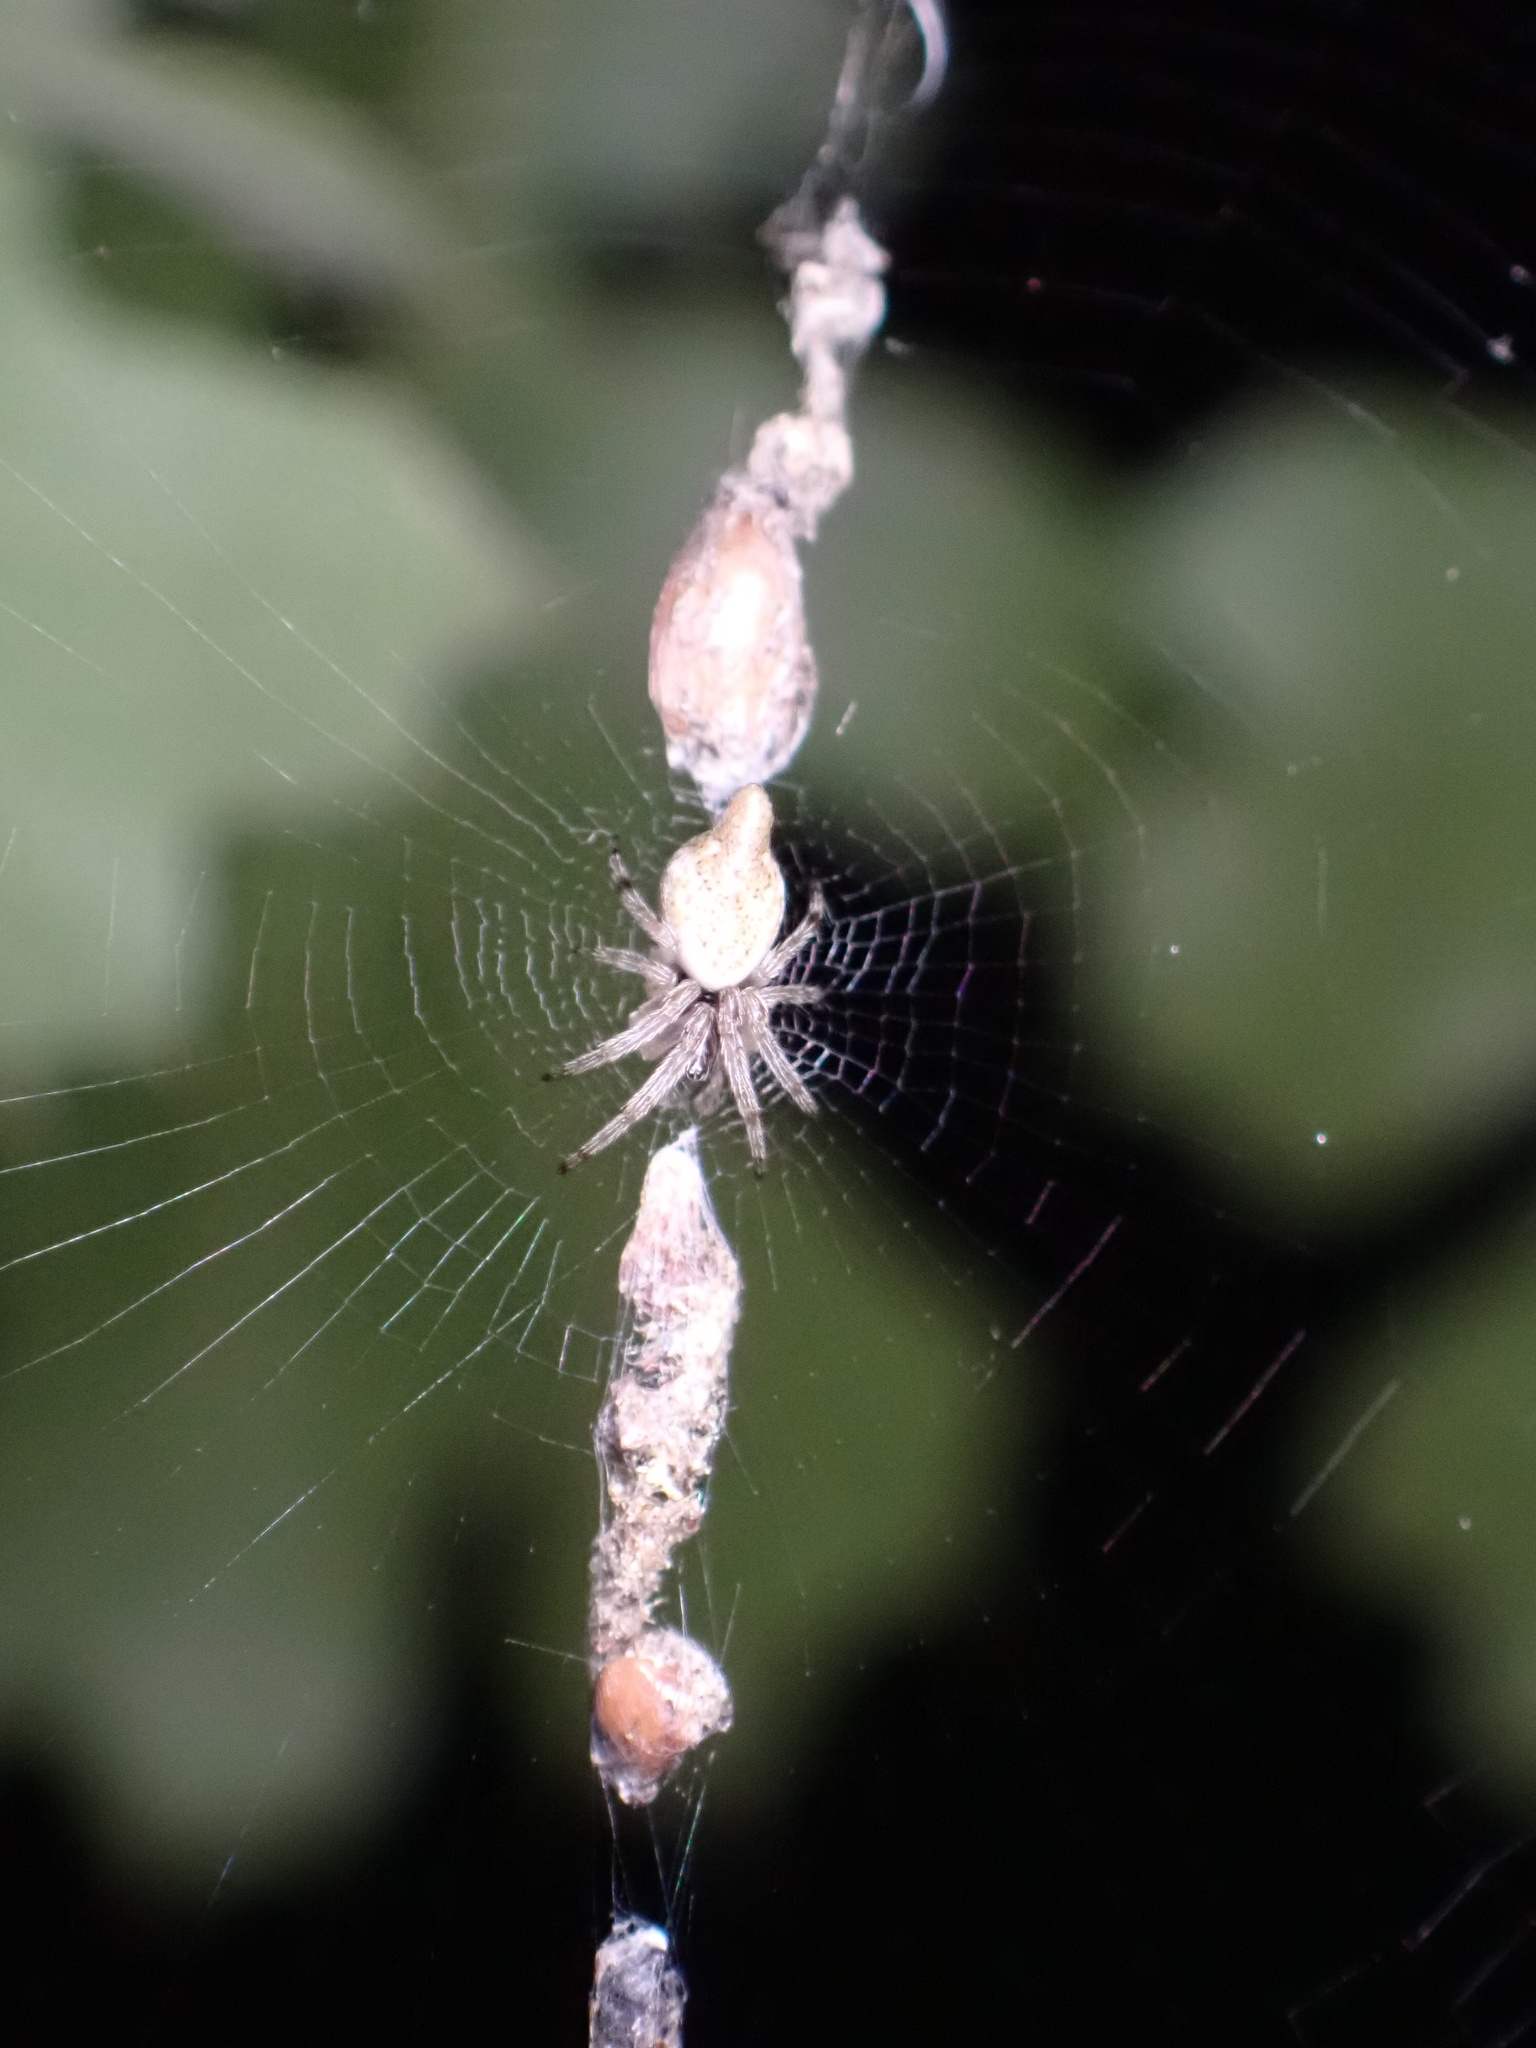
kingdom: Animalia
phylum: Arthropoda
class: Arachnida
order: Araneae
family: Araneidae
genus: Cyclosa
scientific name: Cyclosa conica
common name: Conical trashline orbweaver
